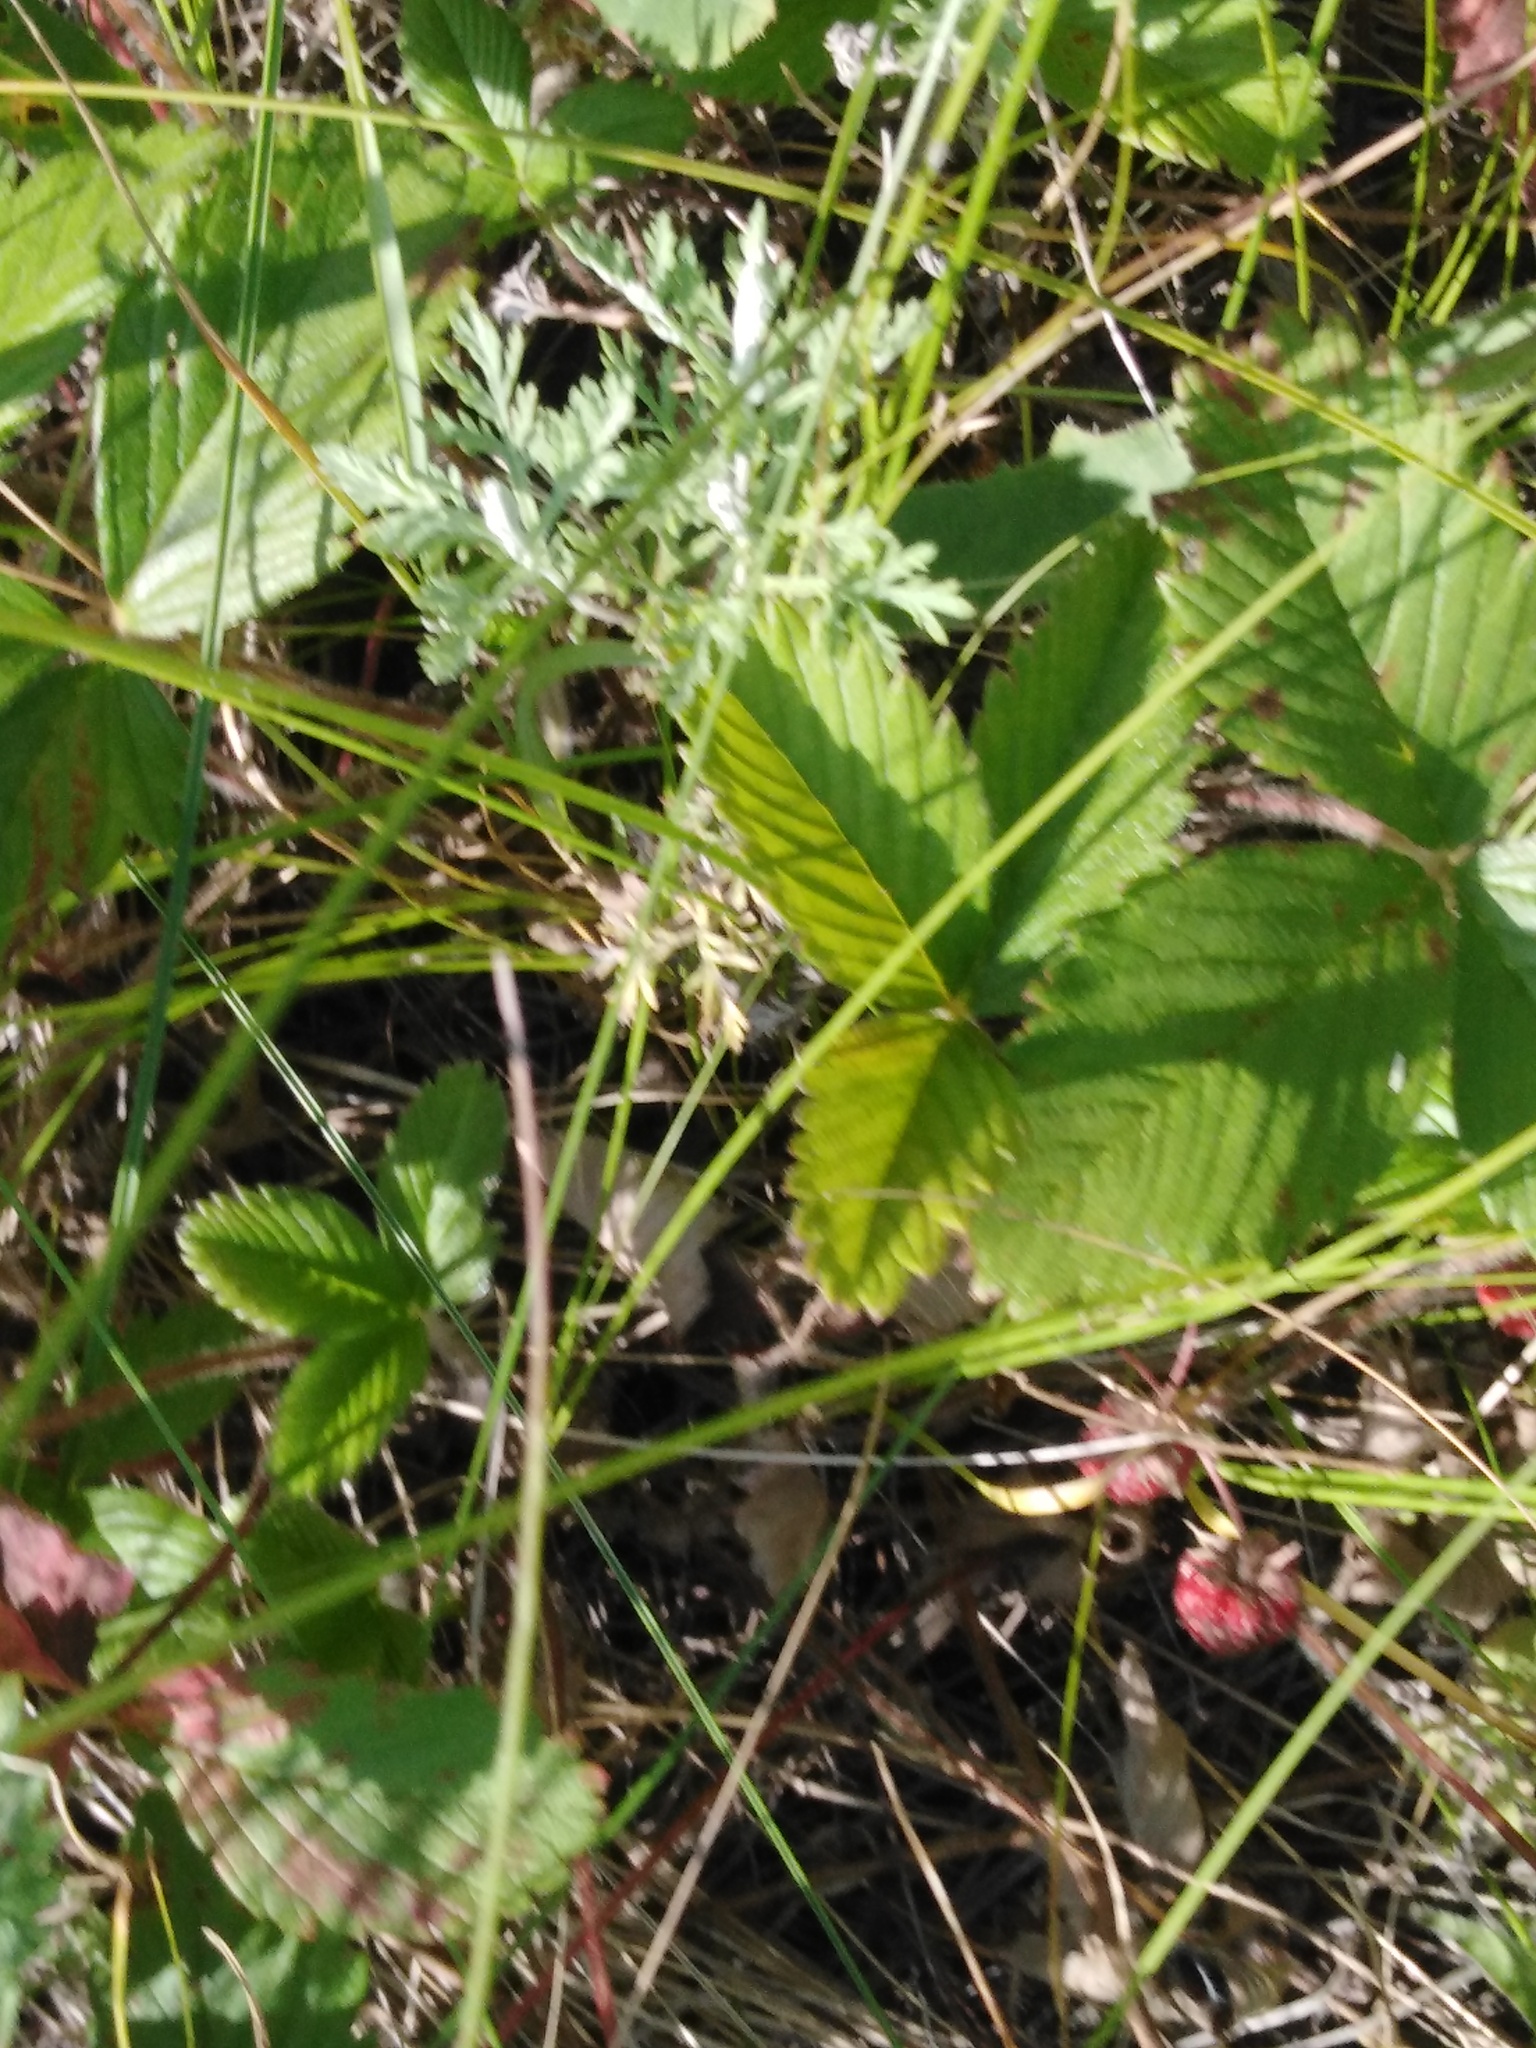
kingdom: Plantae
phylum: Tracheophyta
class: Magnoliopsida
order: Rosales
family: Rosaceae
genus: Fragaria
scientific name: Fragaria viridis
